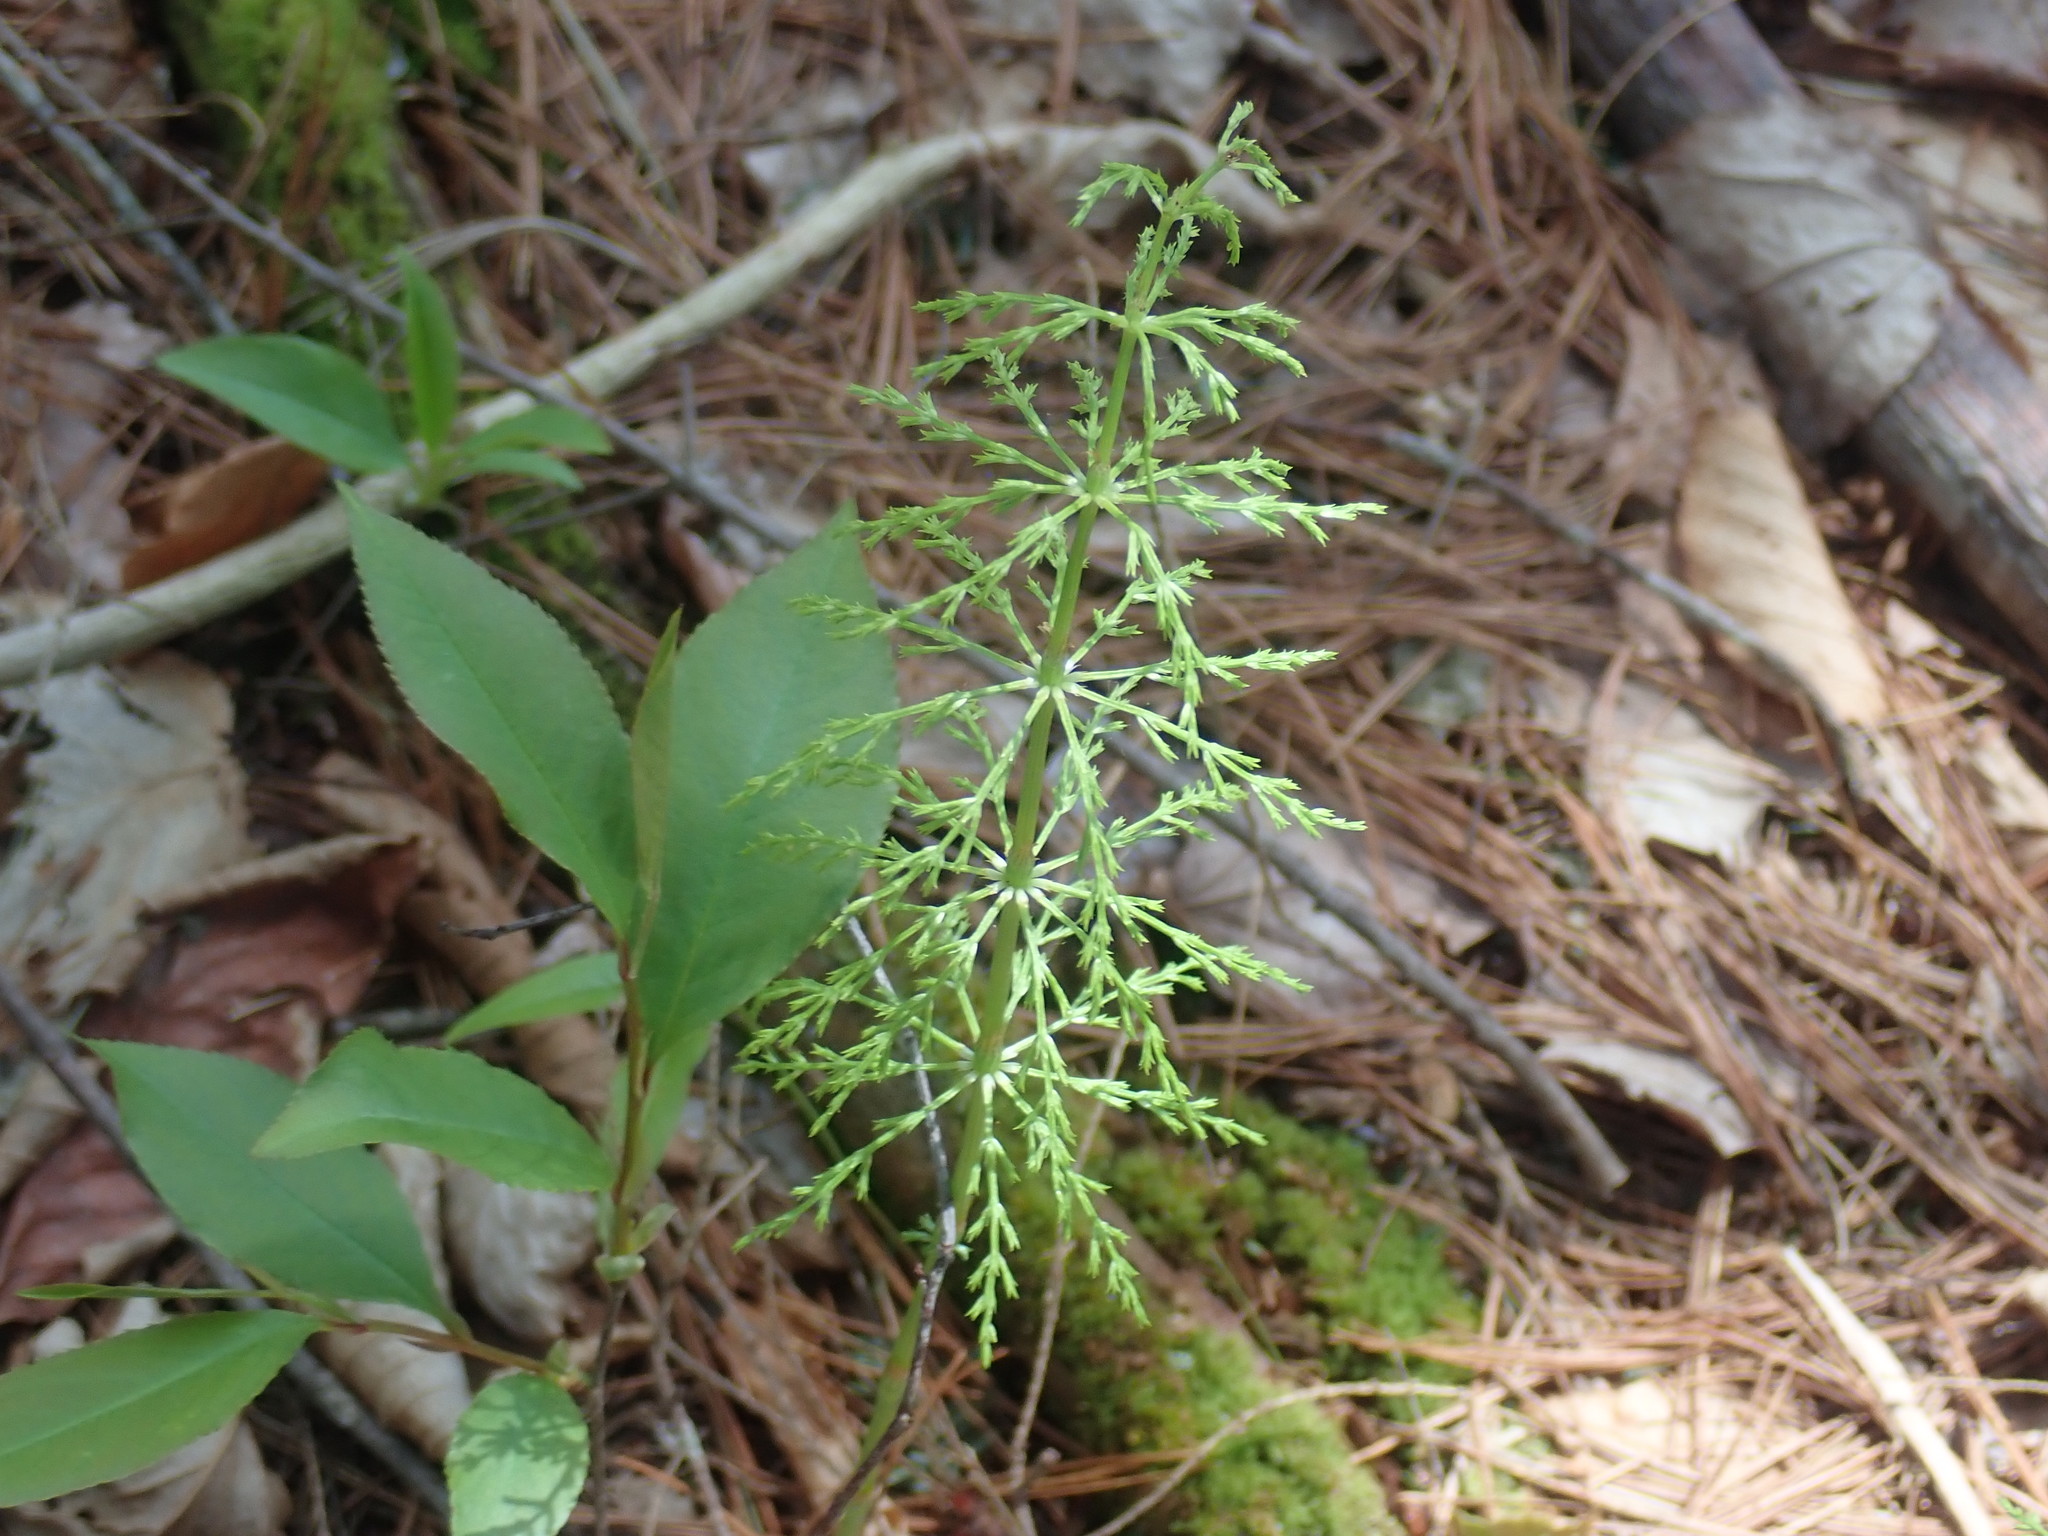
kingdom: Plantae
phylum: Tracheophyta
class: Polypodiopsida
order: Equisetales
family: Equisetaceae
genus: Equisetum
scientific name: Equisetum sylvaticum
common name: Wood horsetail
